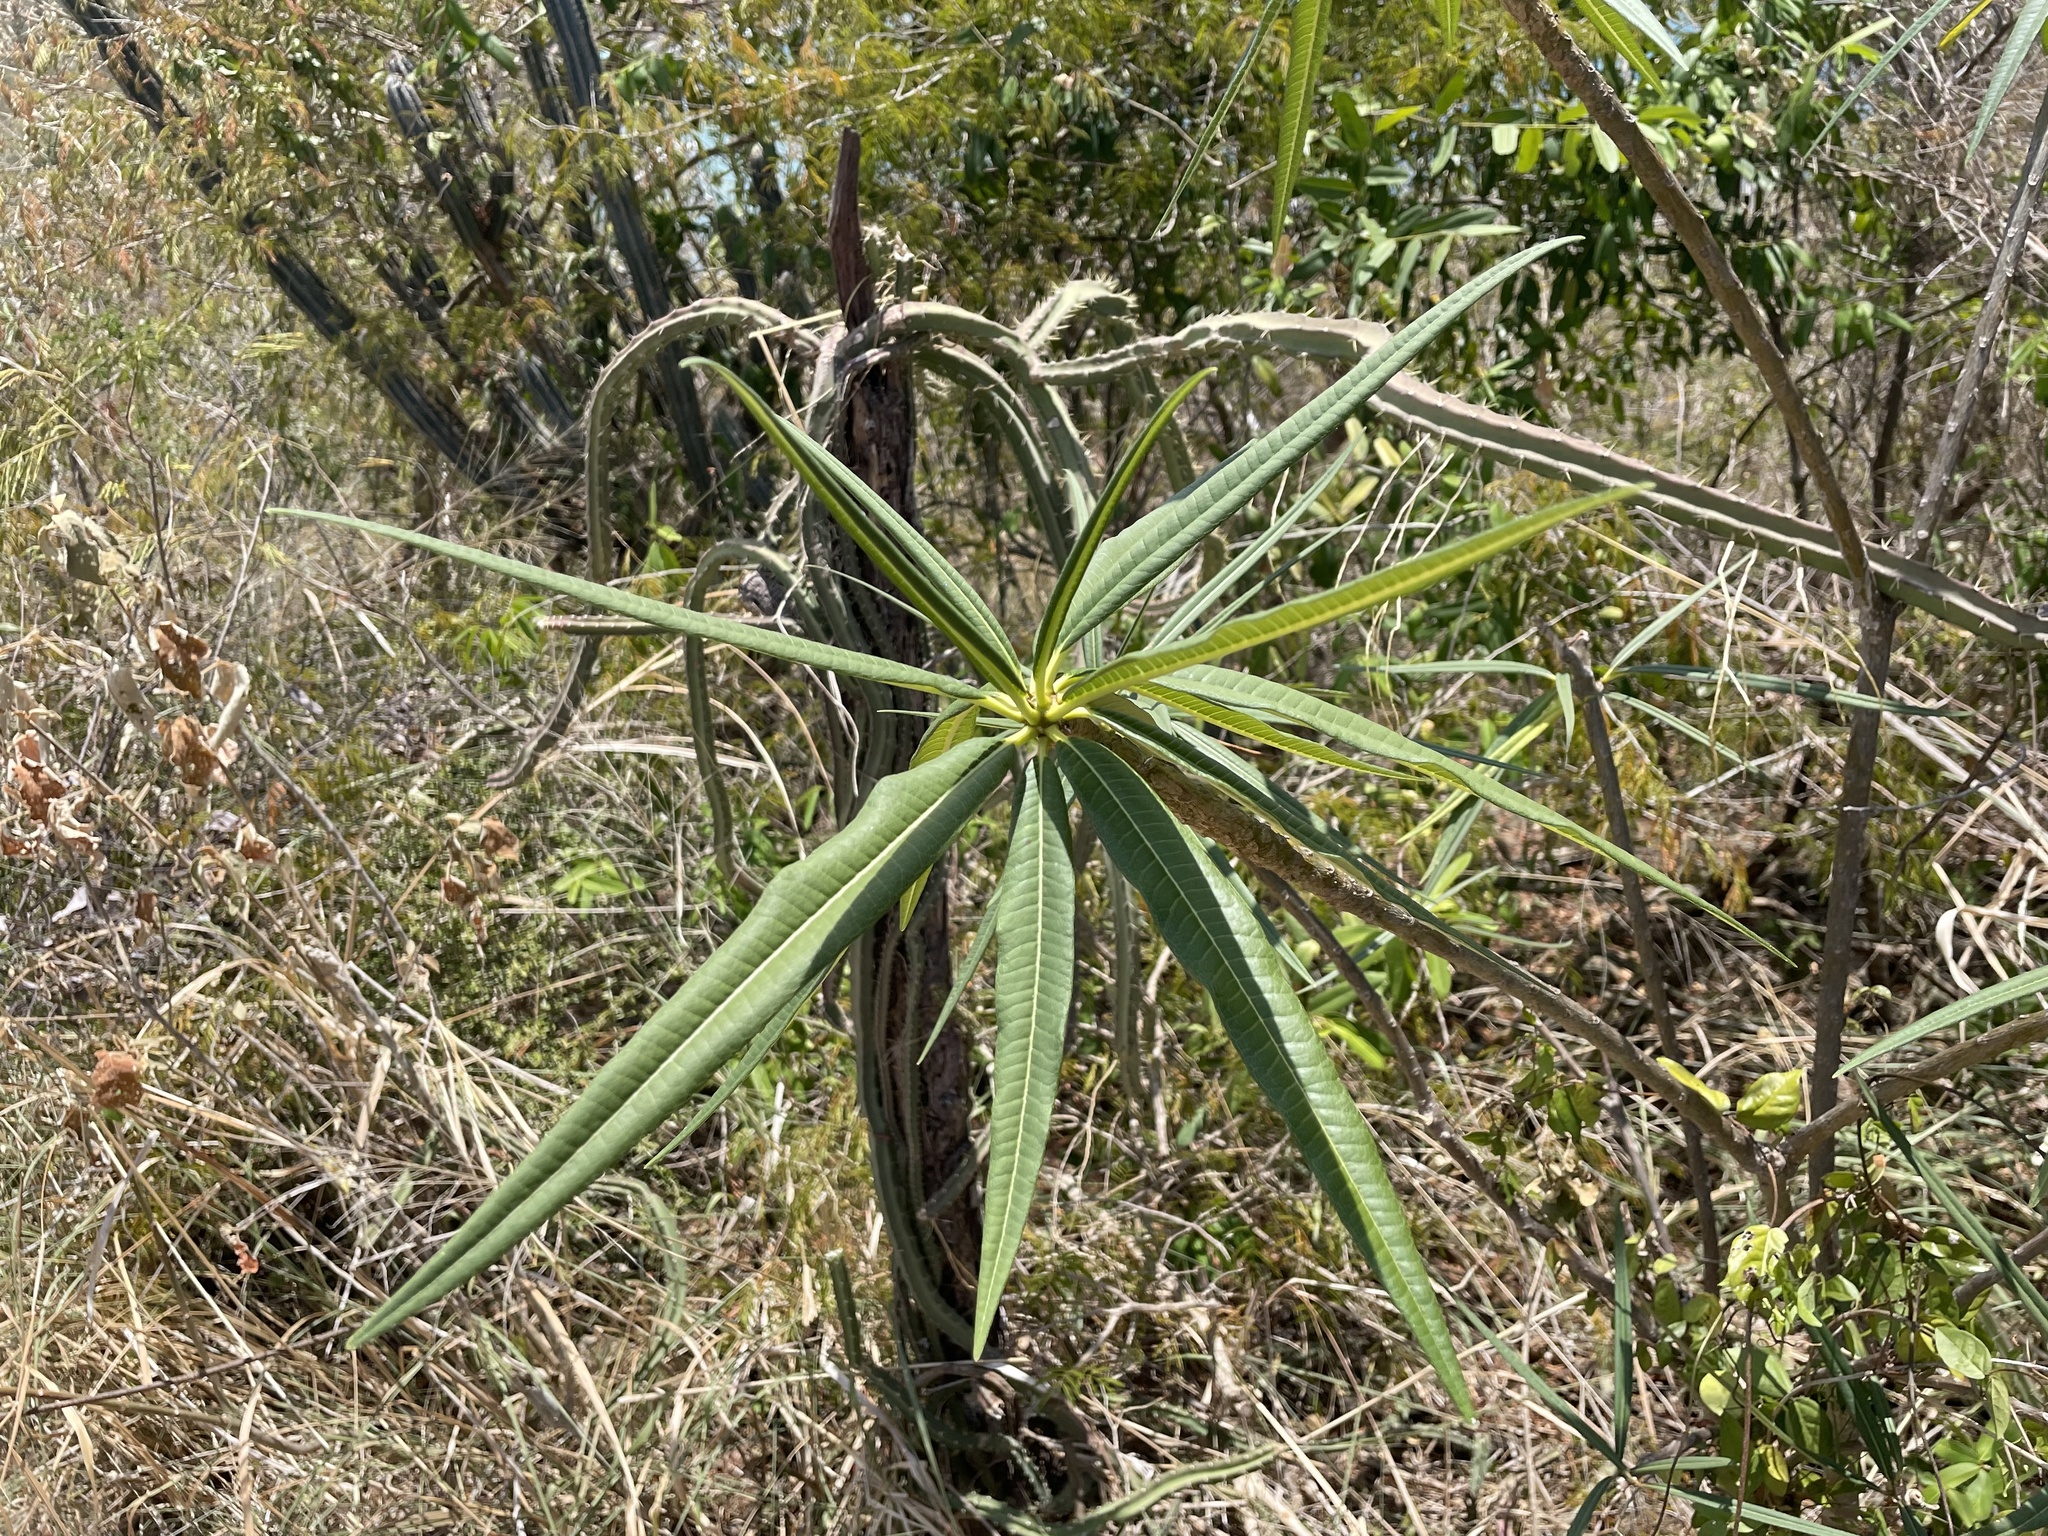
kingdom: Plantae
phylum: Tracheophyta
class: Magnoliopsida
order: Gentianales
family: Apocynaceae
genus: Plumeria
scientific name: Plumeria alba
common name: Wild frangipani
